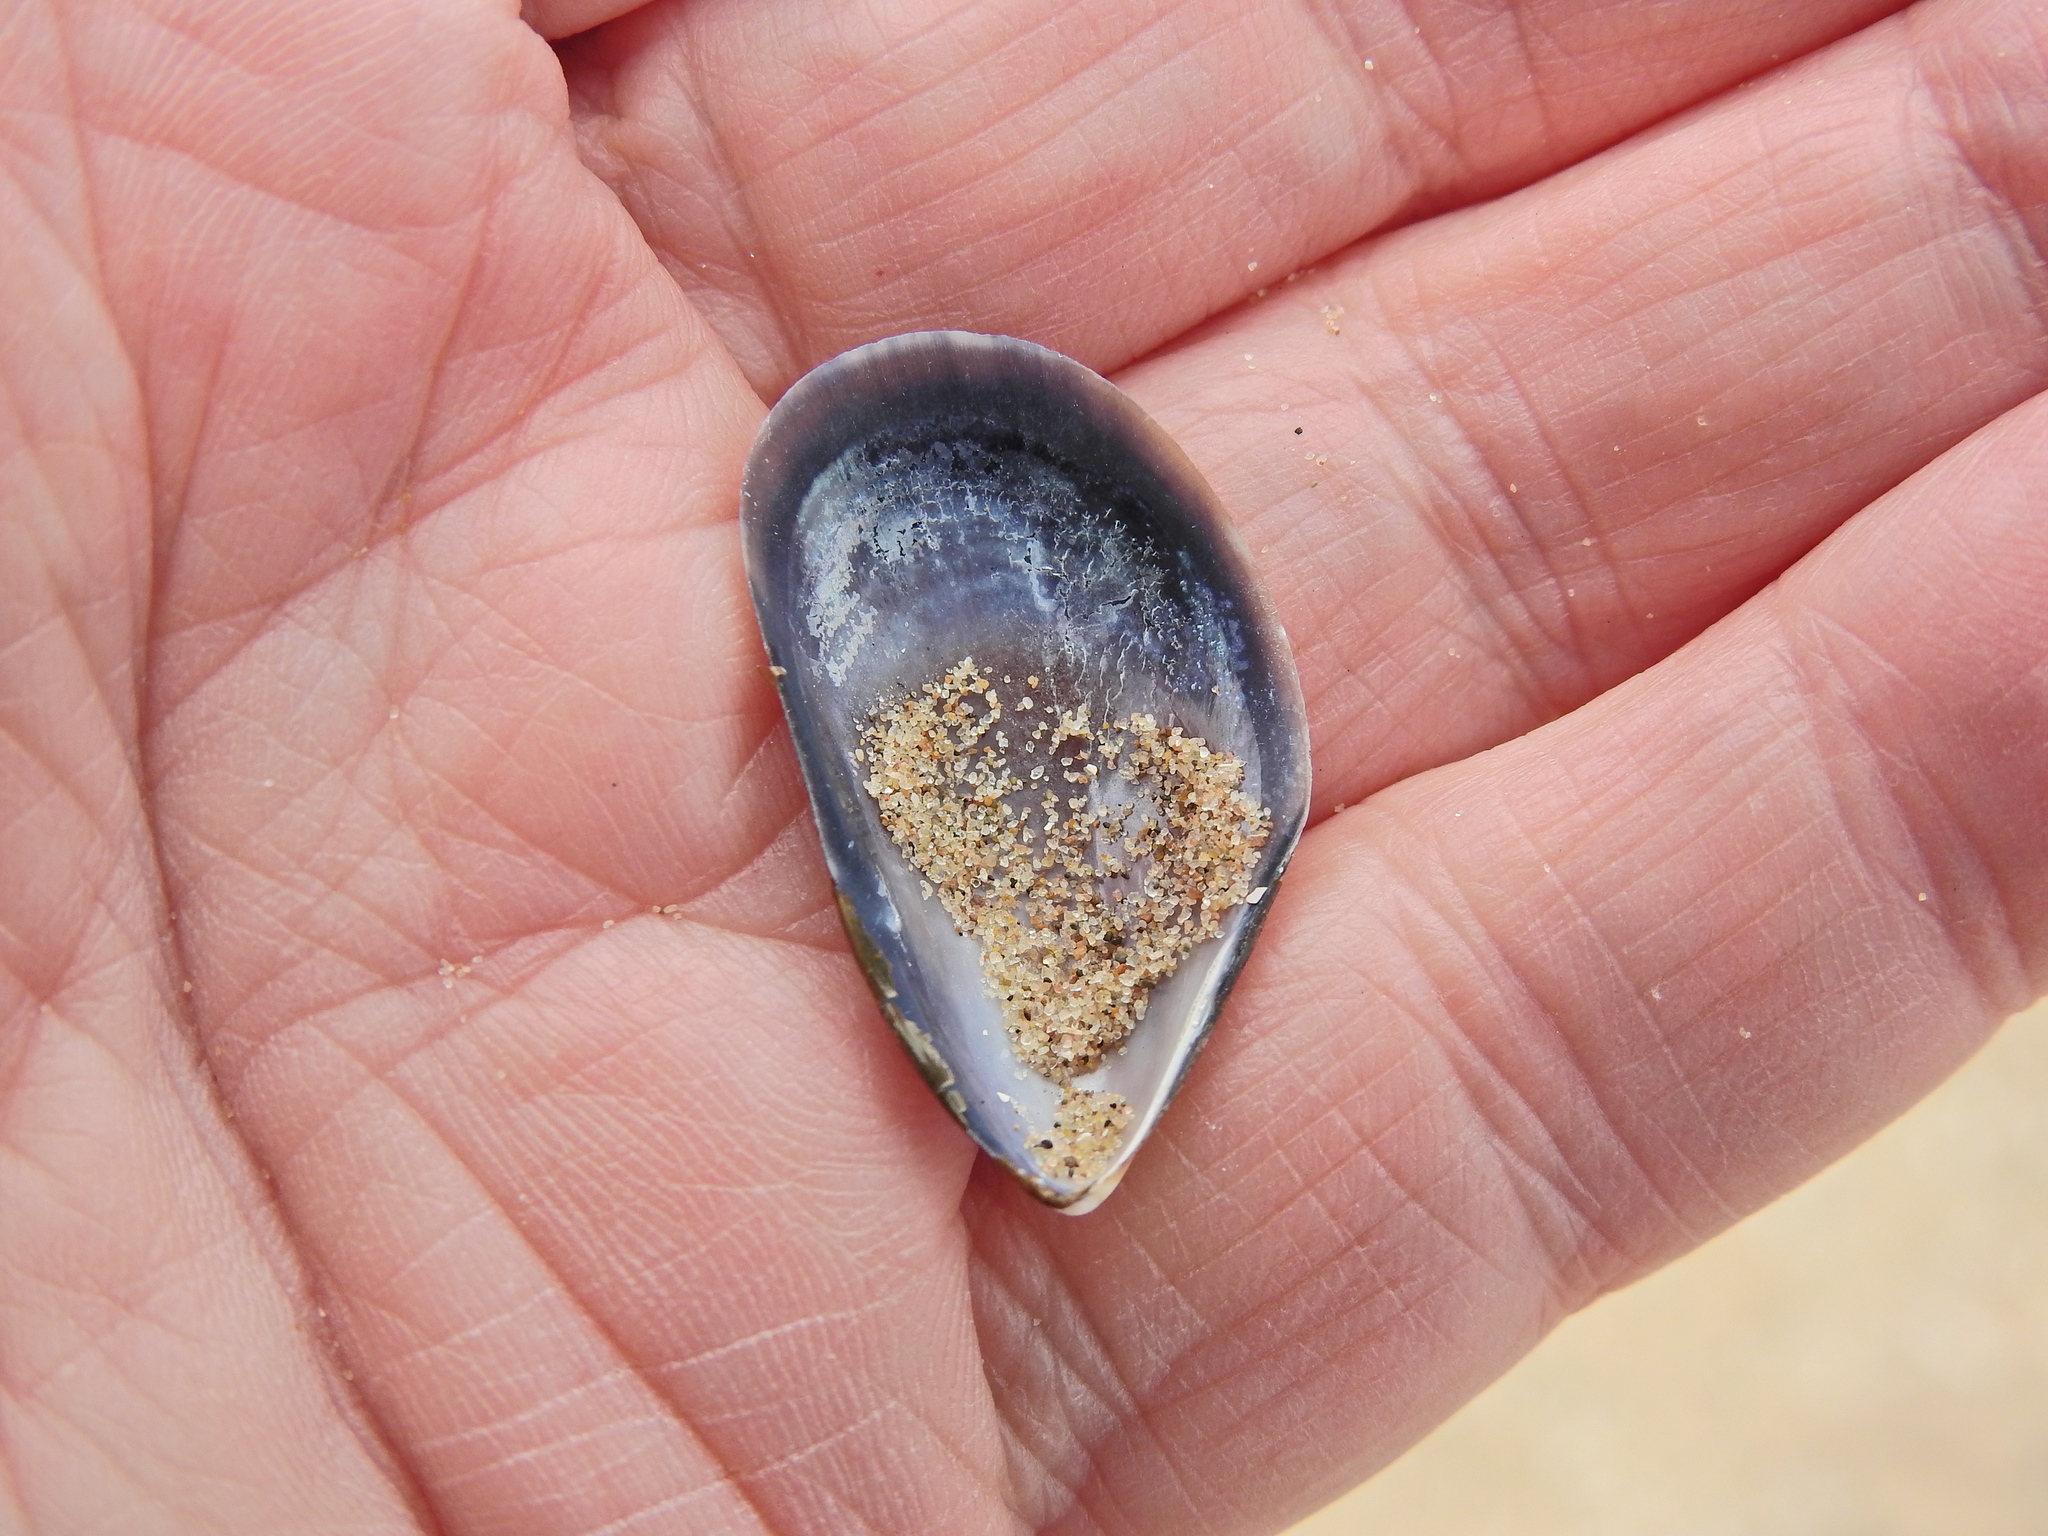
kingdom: Animalia
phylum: Mollusca
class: Bivalvia
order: Mytilida
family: Mytilidae
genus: Mytilus
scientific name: Mytilus edulis
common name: Blue mussel
